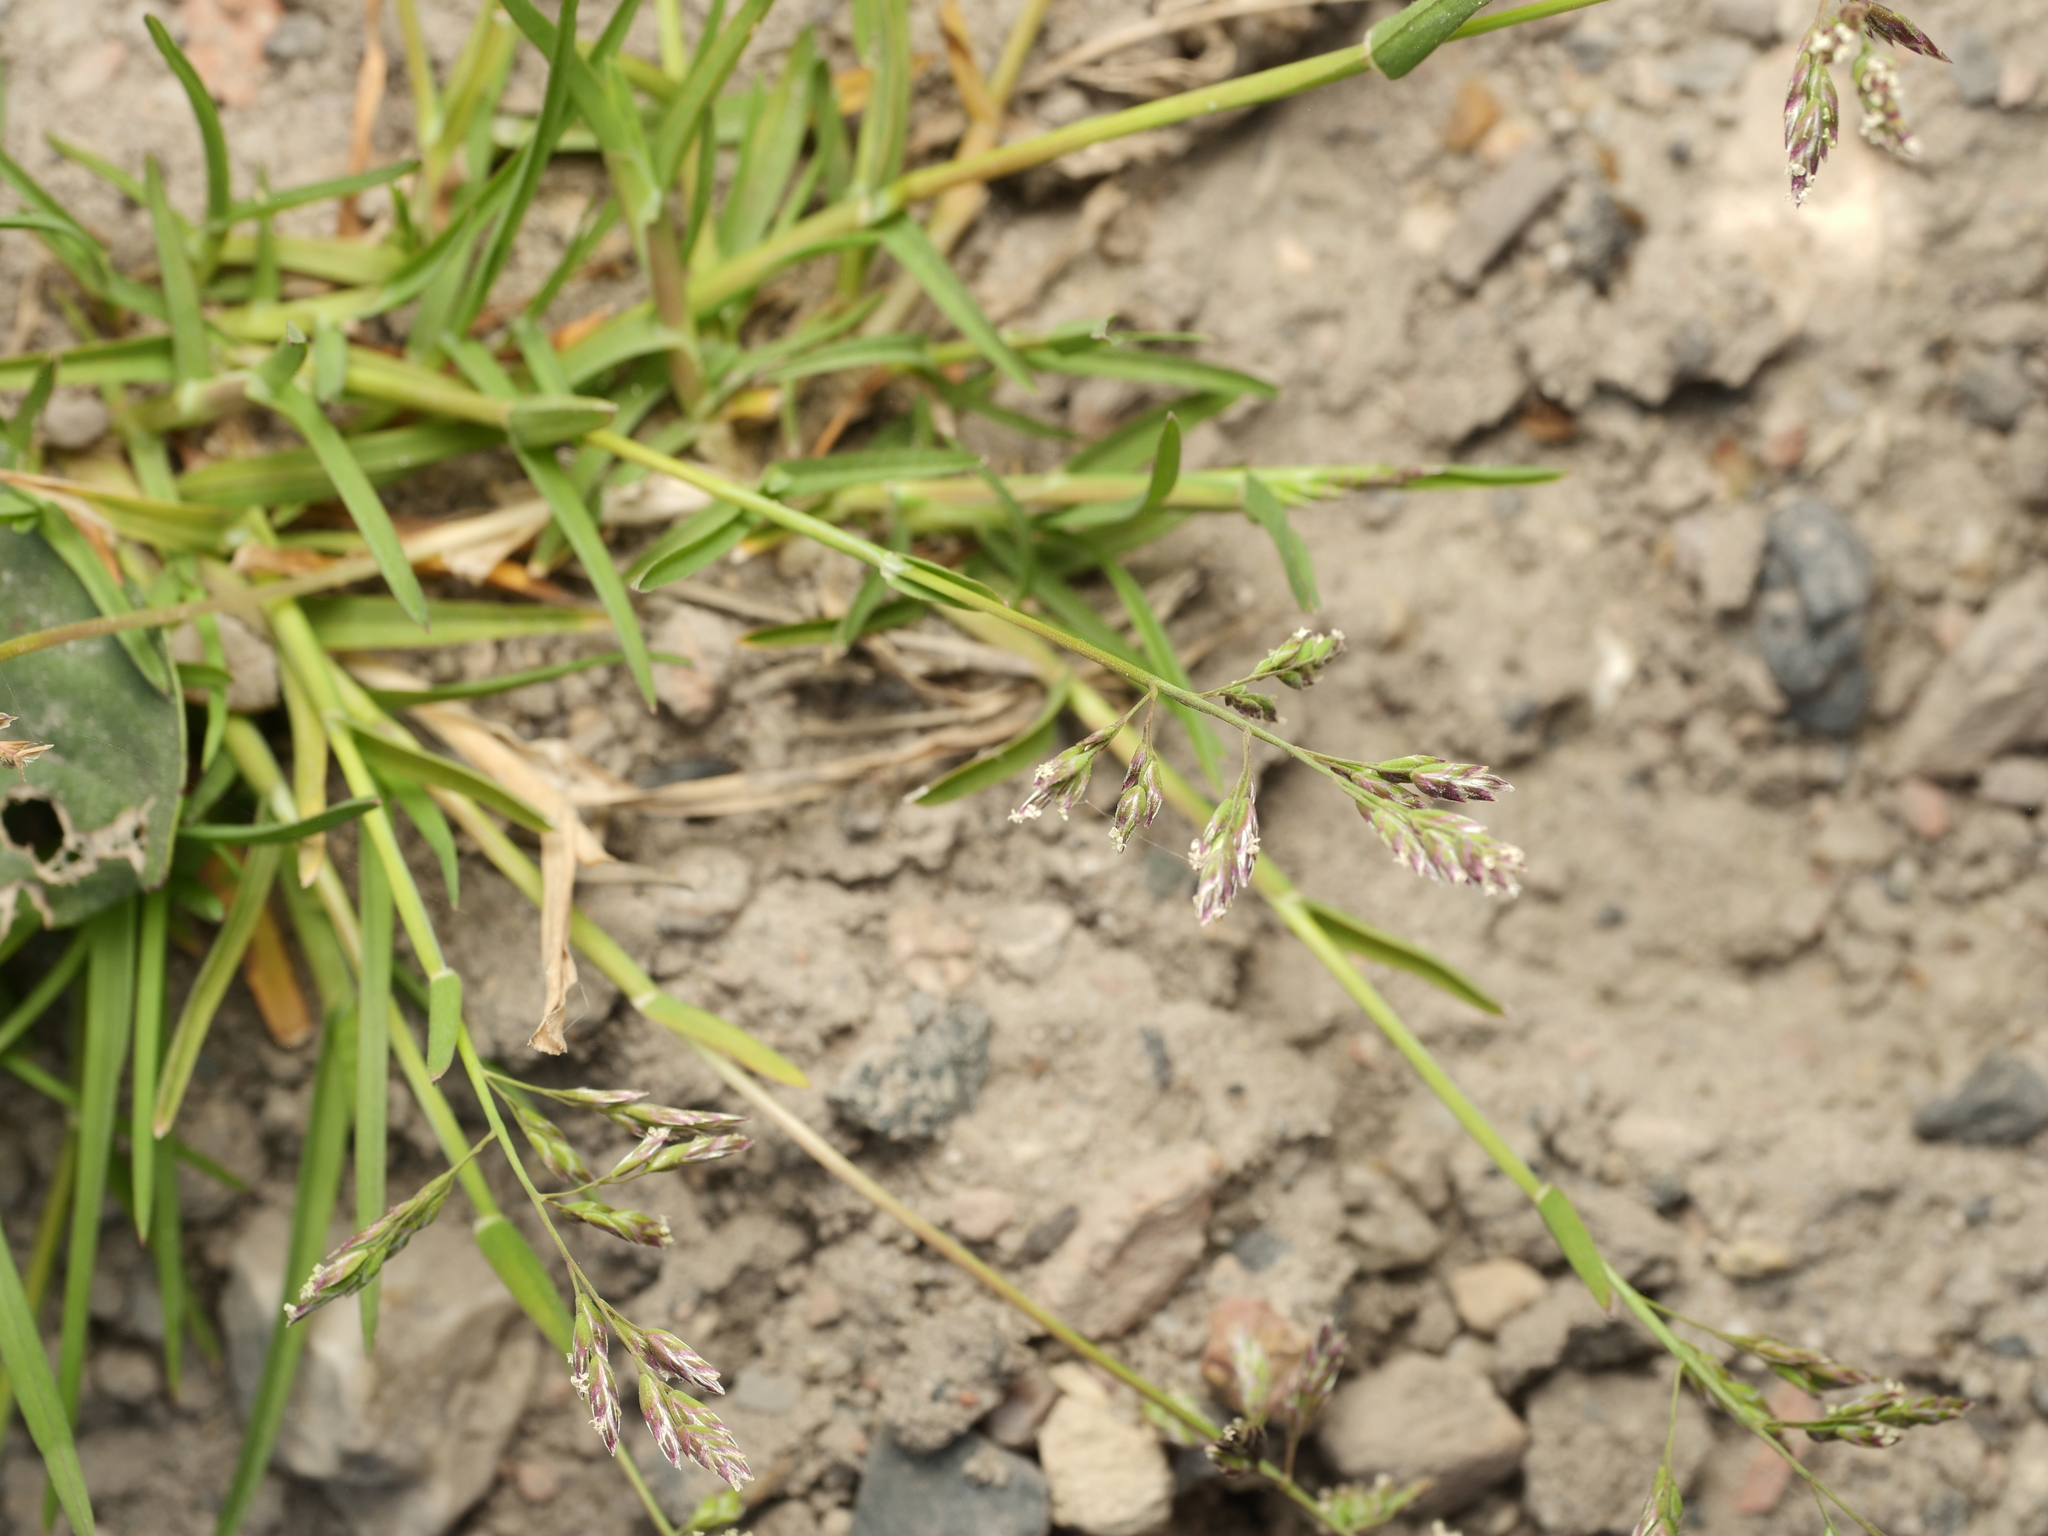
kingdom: Plantae
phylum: Tracheophyta
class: Liliopsida
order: Poales
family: Poaceae
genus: Poa
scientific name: Poa annua
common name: Annual bluegrass
